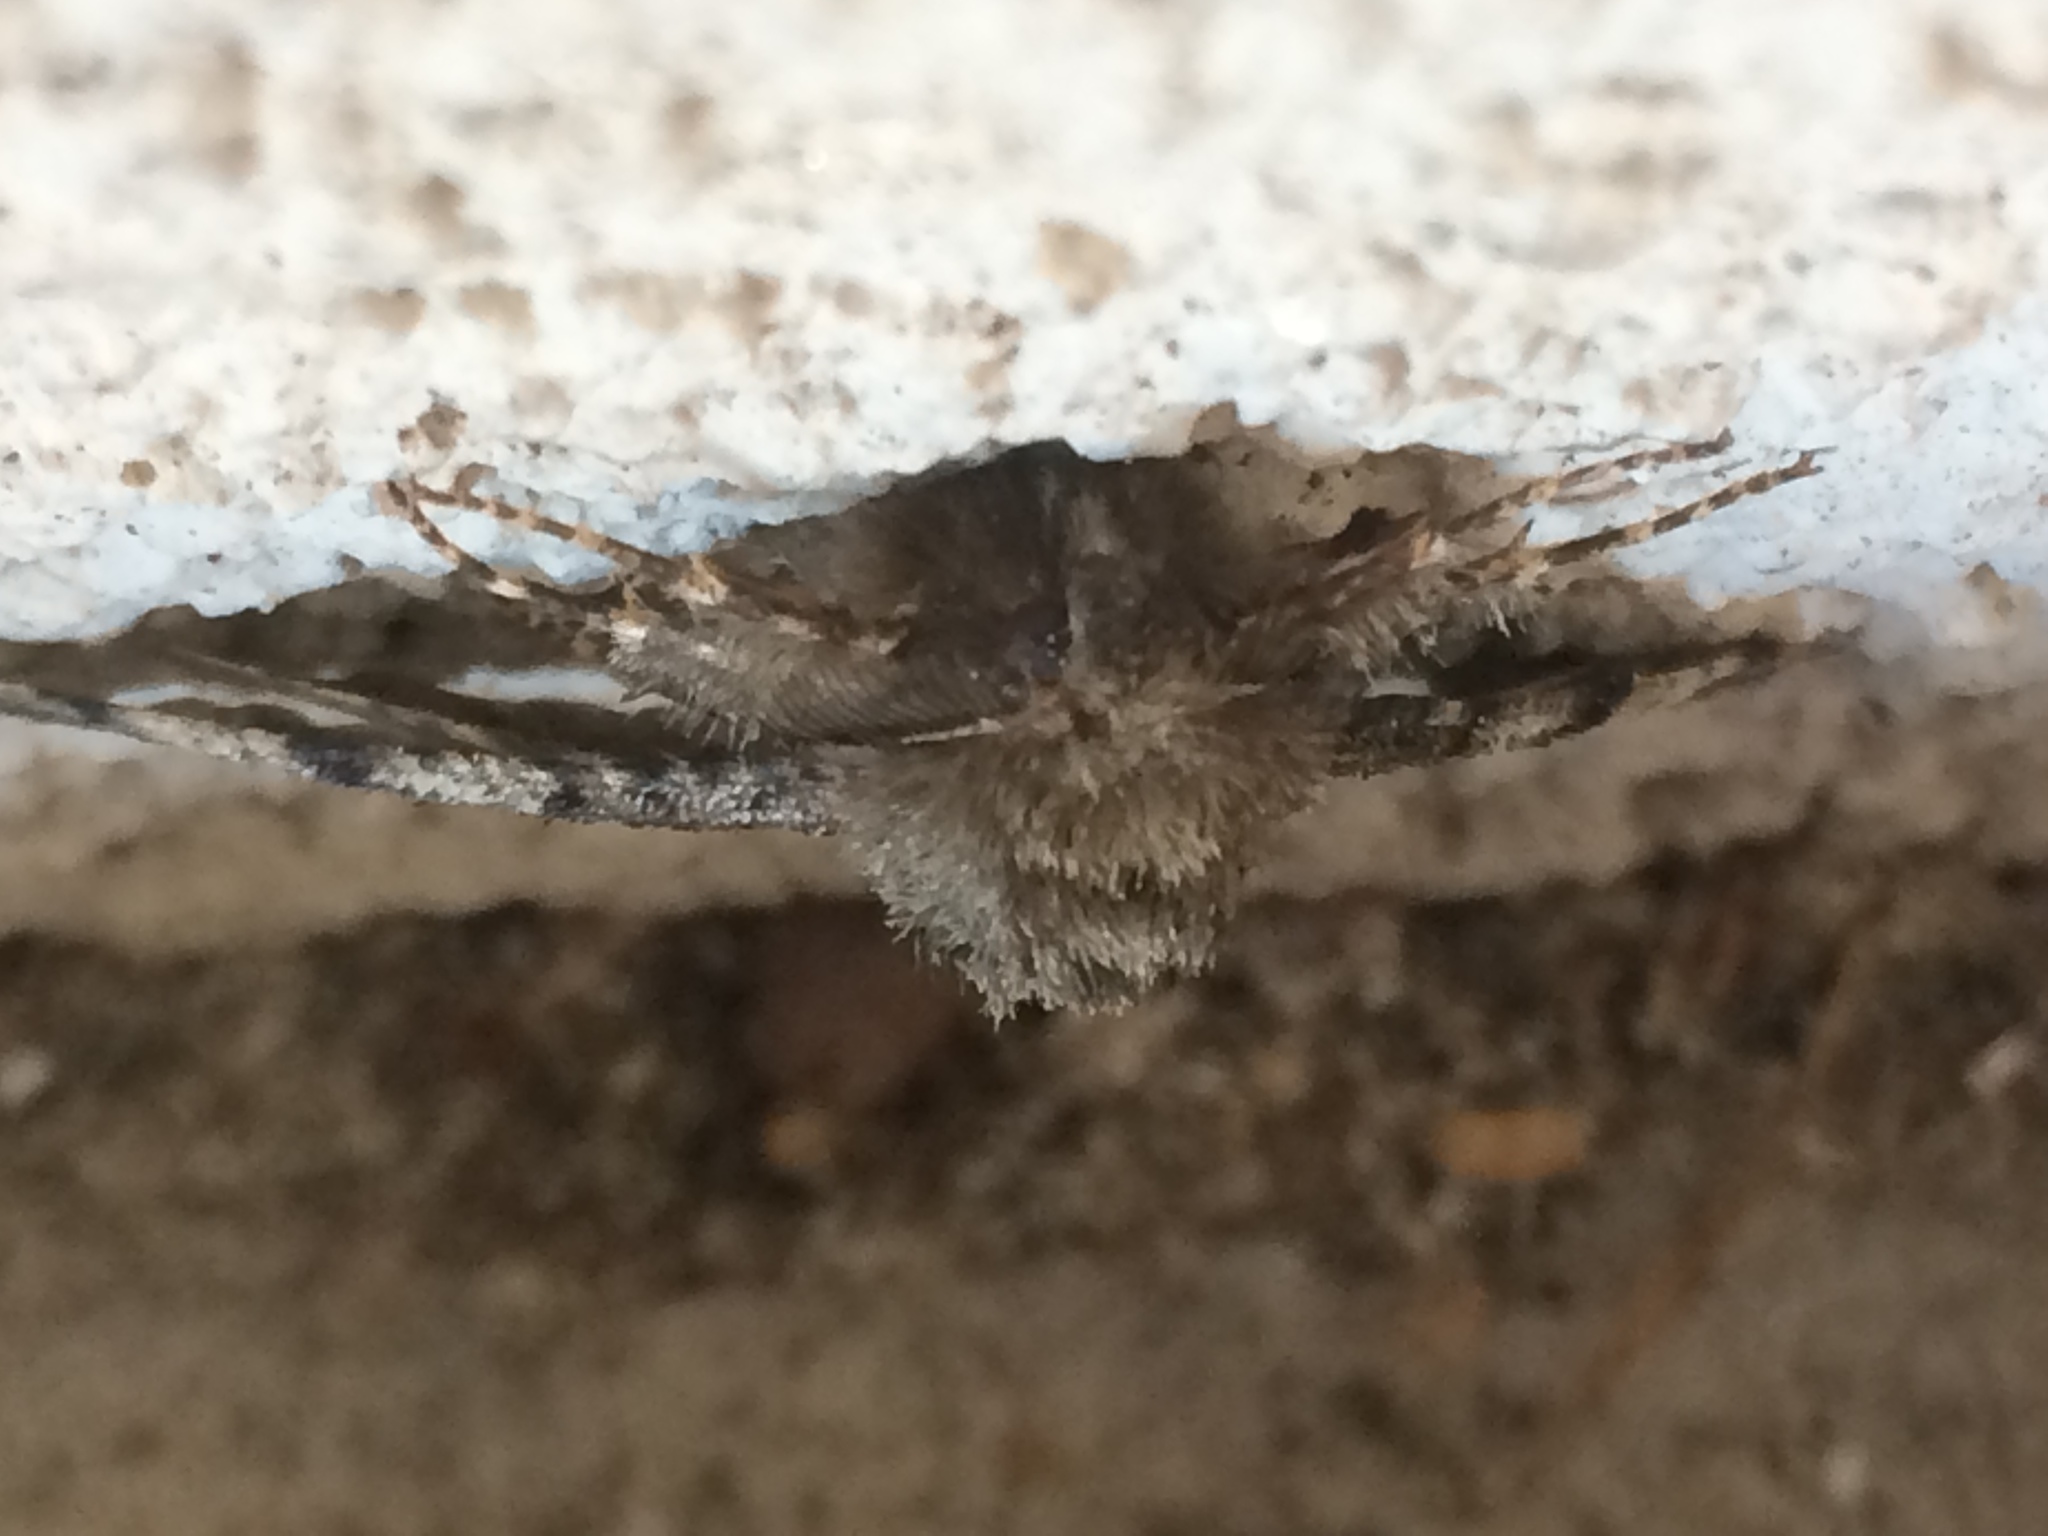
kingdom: Animalia
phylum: Arthropoda
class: Insecta
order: Lepidoptera
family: Geometridae
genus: Lycia
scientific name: Lycia ypsilon
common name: Wooly gray
